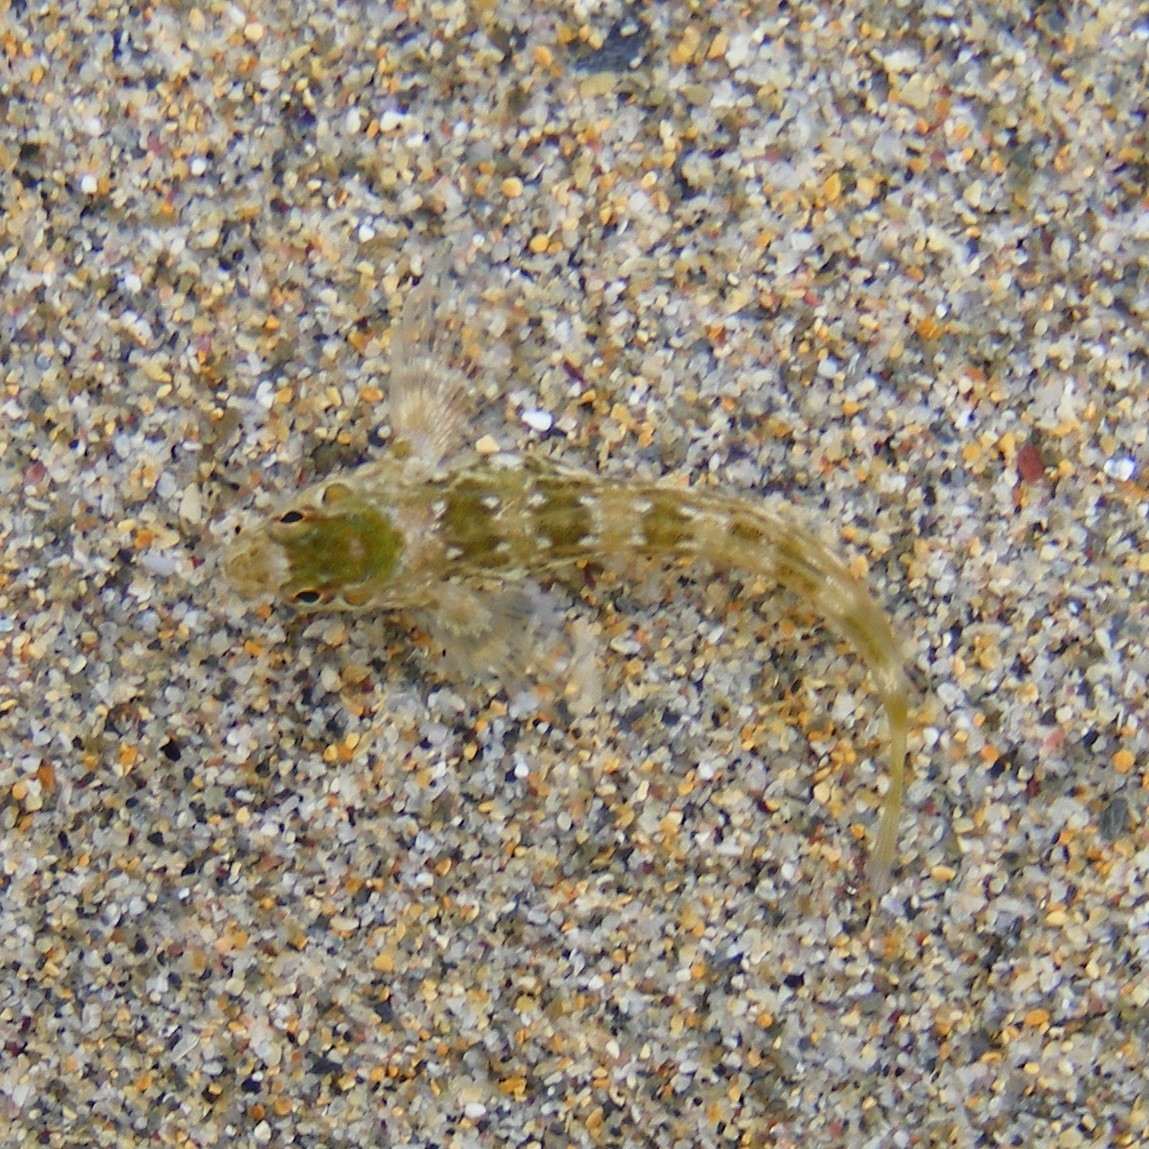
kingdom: Animalia
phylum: Chordata
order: Perciformes
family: Blenniidae
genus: Lipophrys
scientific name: Lipophrys pholis
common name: Shanny
